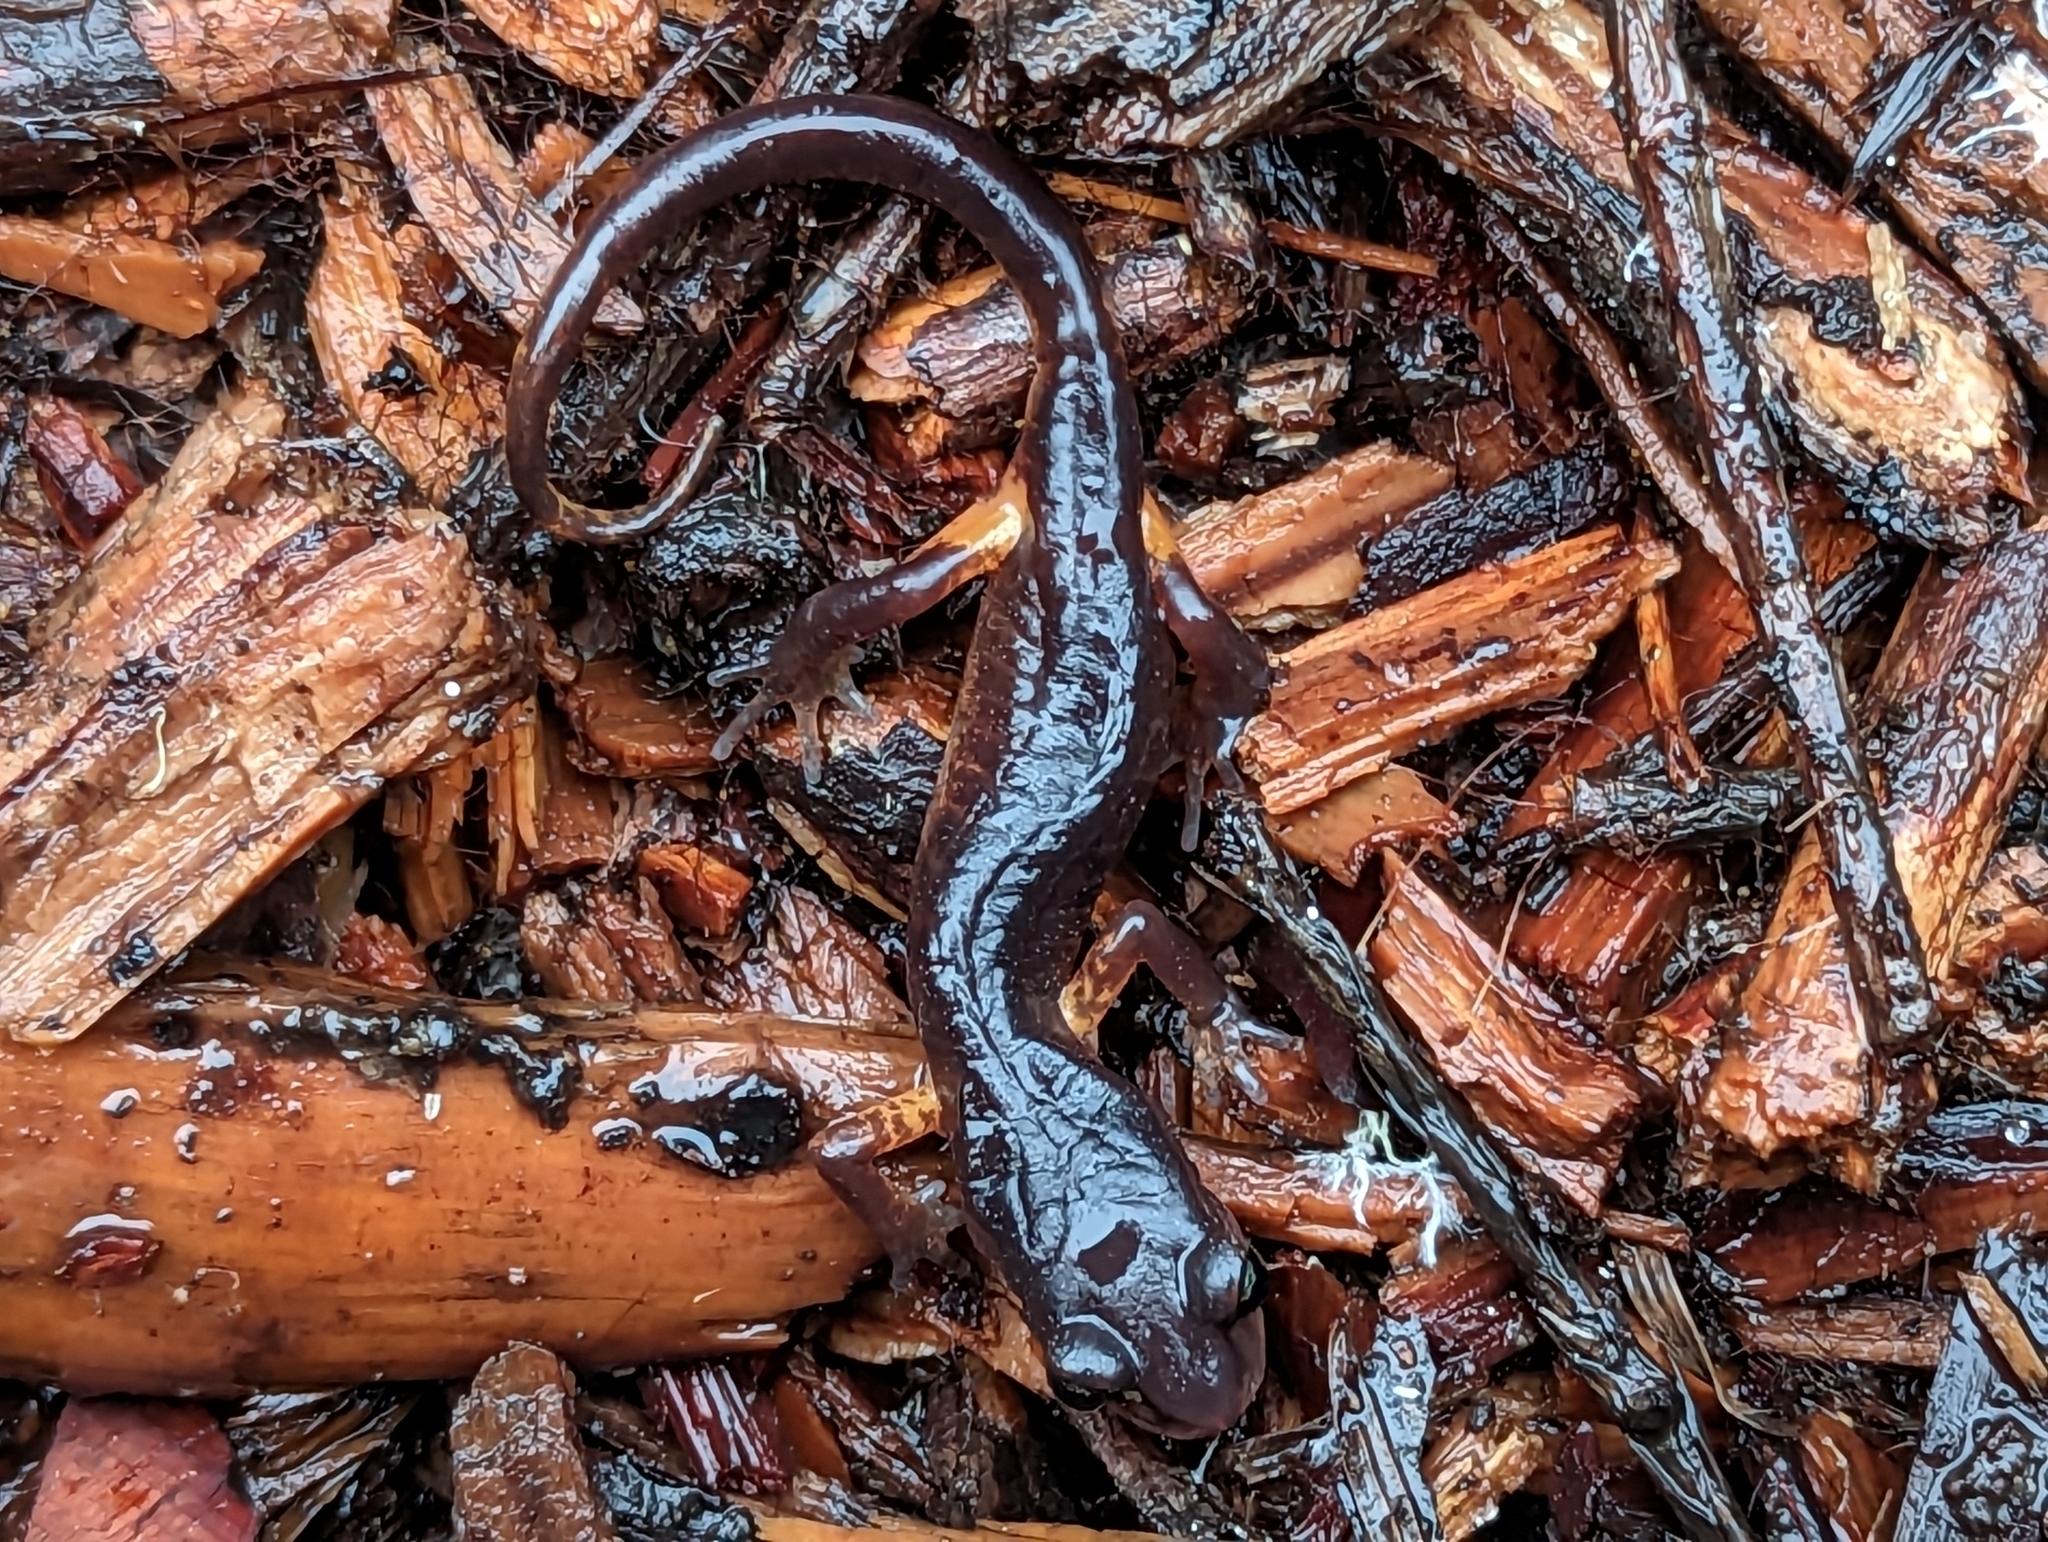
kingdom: Animalia
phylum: Chordata
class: Amphibia
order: Caudata
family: Plethodontidae
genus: Ensatina
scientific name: Ensatina eschscholtzii
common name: Ensatina
